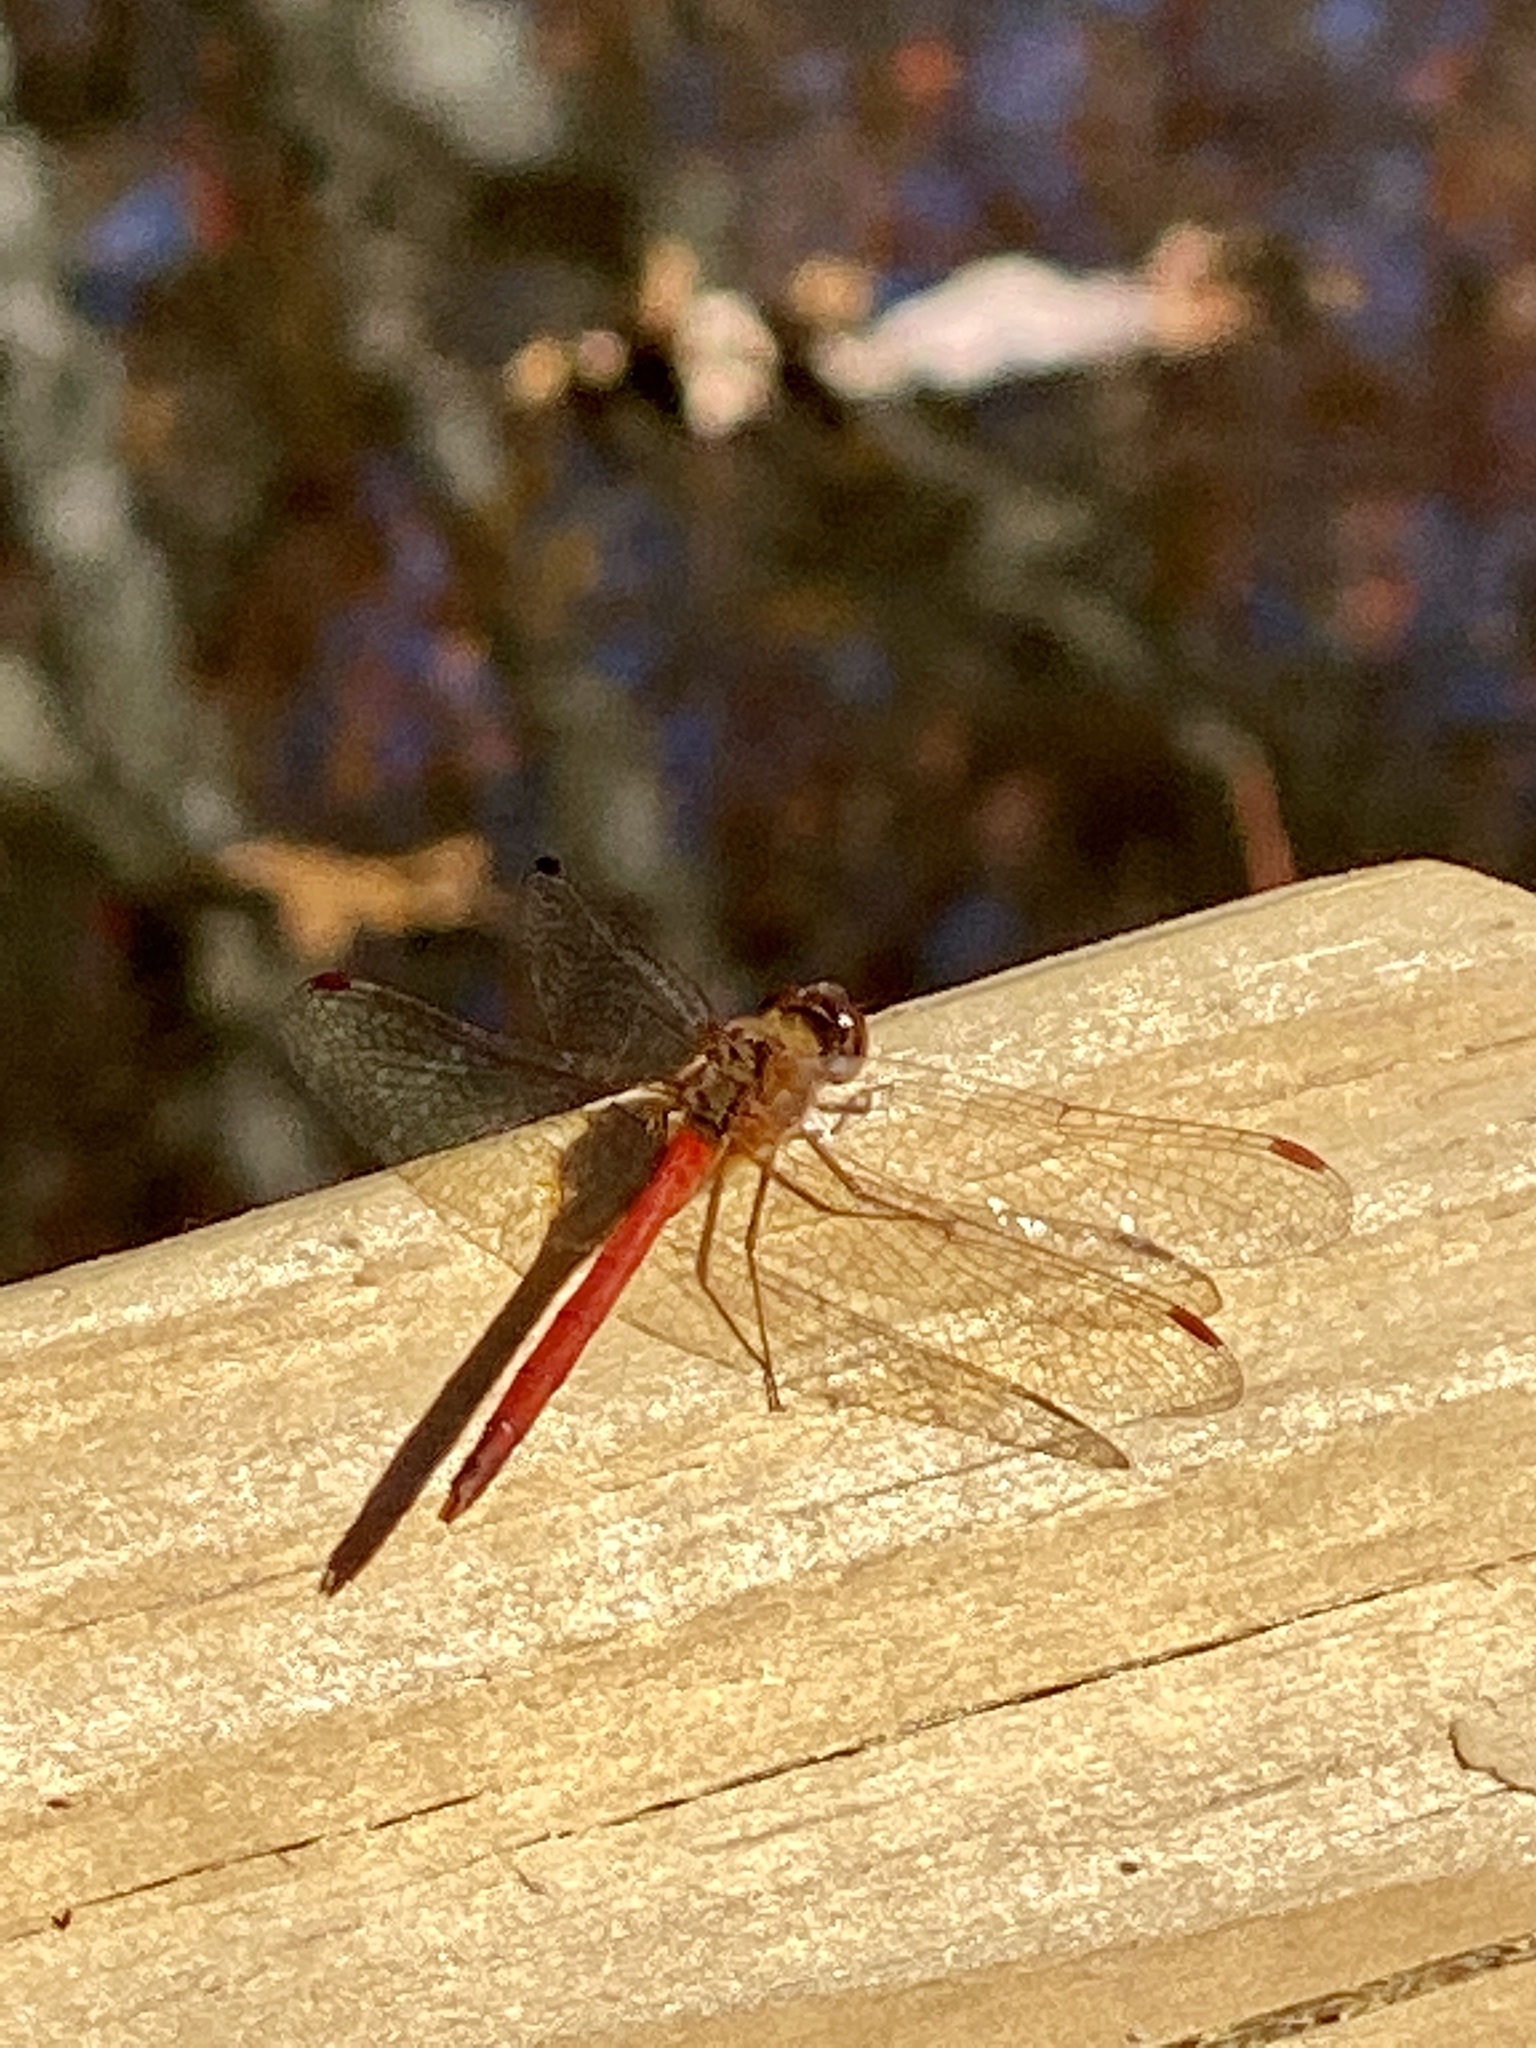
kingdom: Animalia
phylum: Arthropoda
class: Insecta
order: Odonata
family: Libellulidae
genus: Sympetrum
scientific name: Sympetrum vicinum
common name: Autumn meadowhawk
